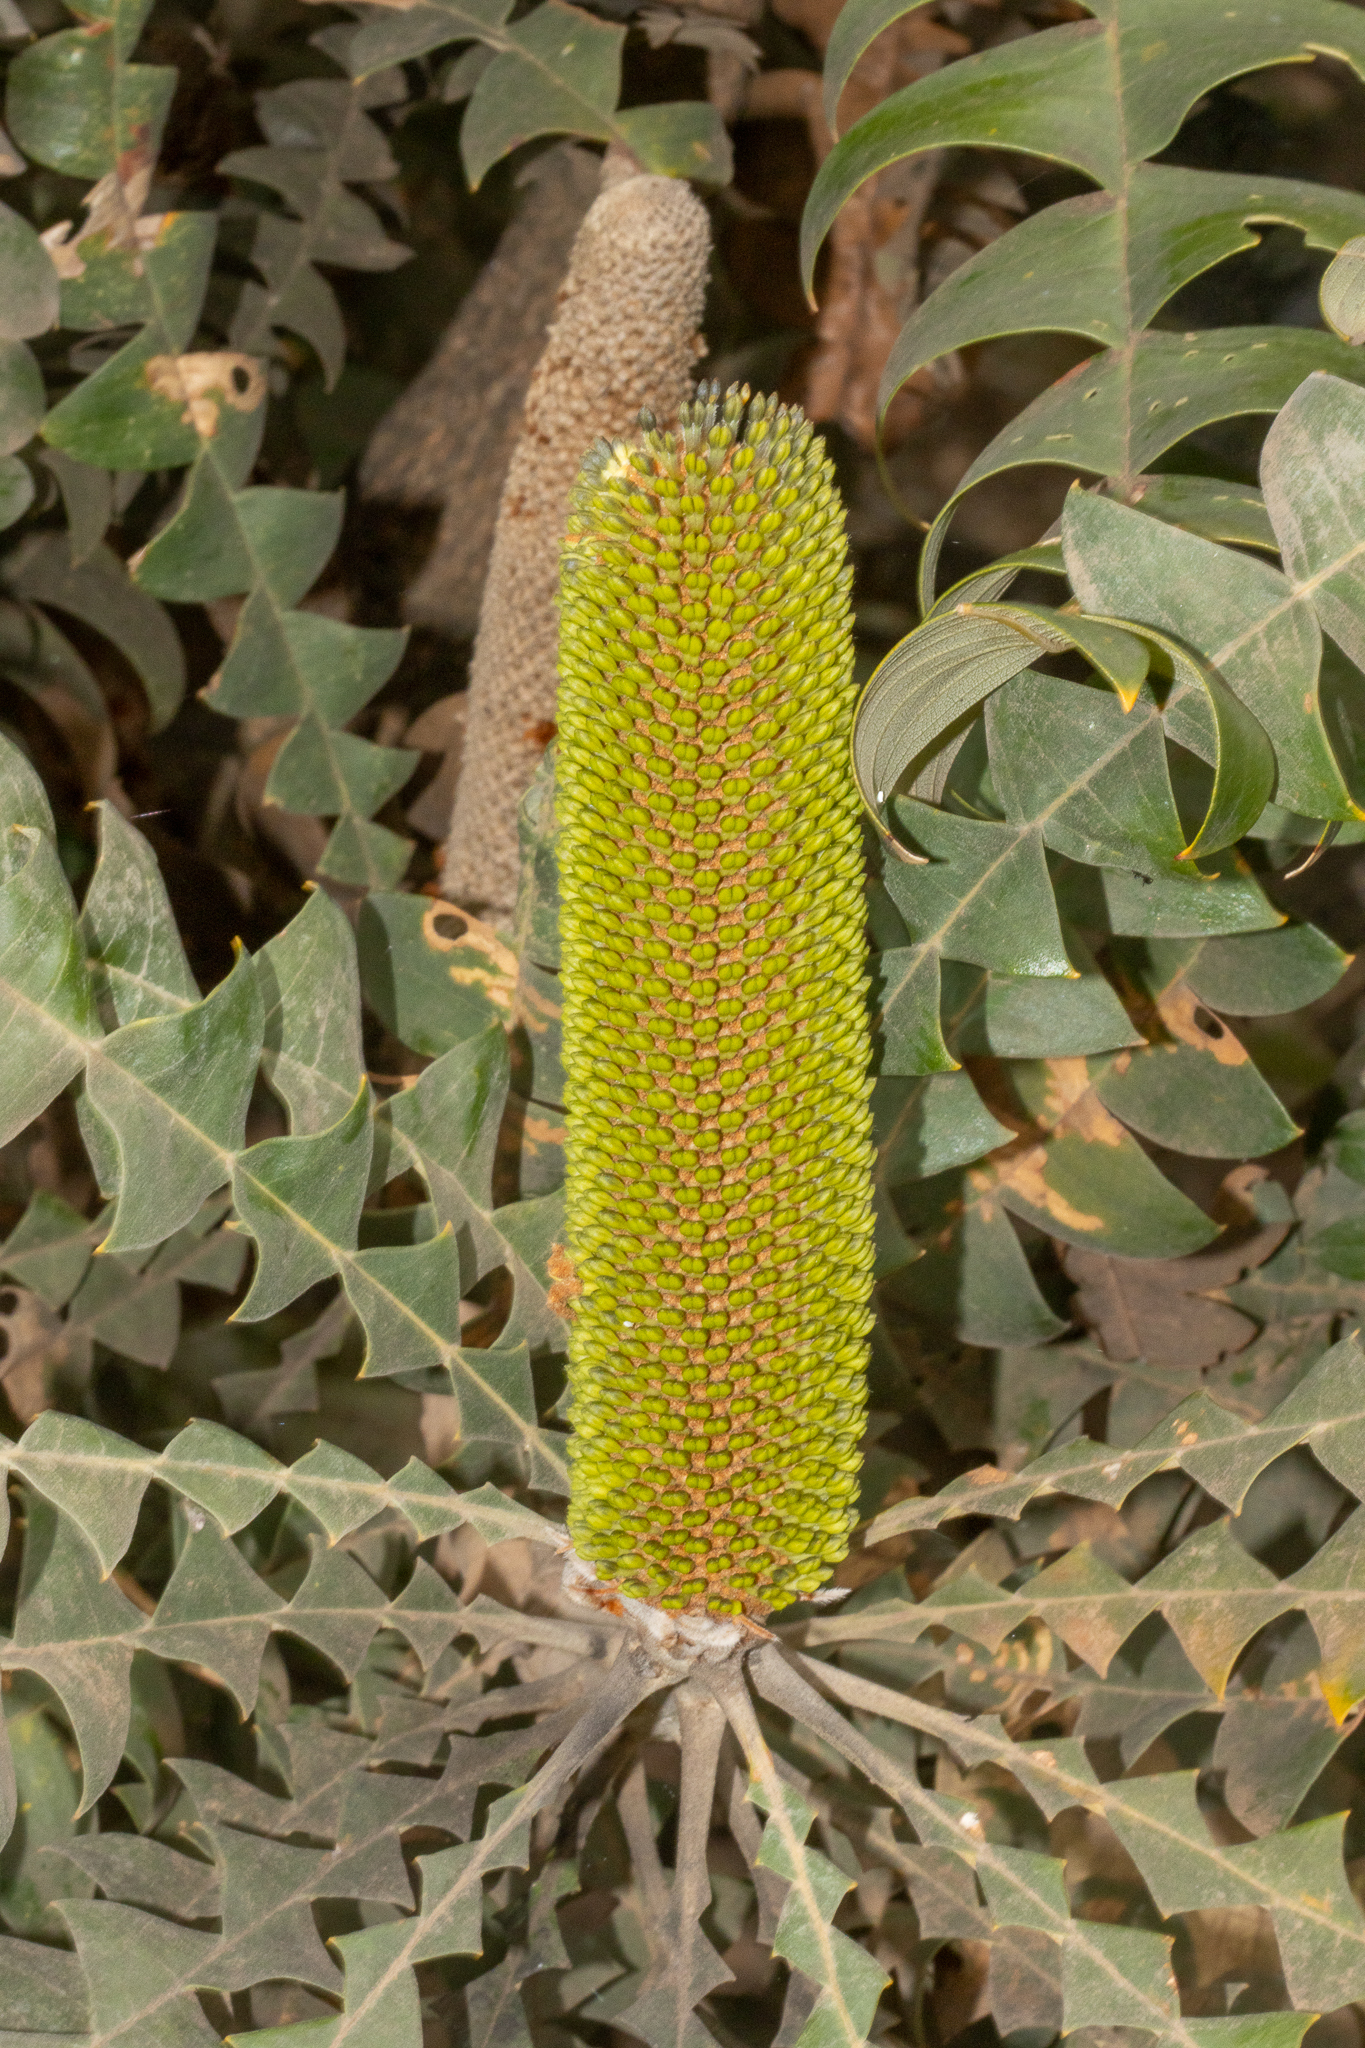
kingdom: Plantae
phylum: Tracheophyta
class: Magnoliopsida
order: Proteales
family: Proteaceae
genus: Banksia
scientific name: Banksia grandis
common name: Giant banksia
